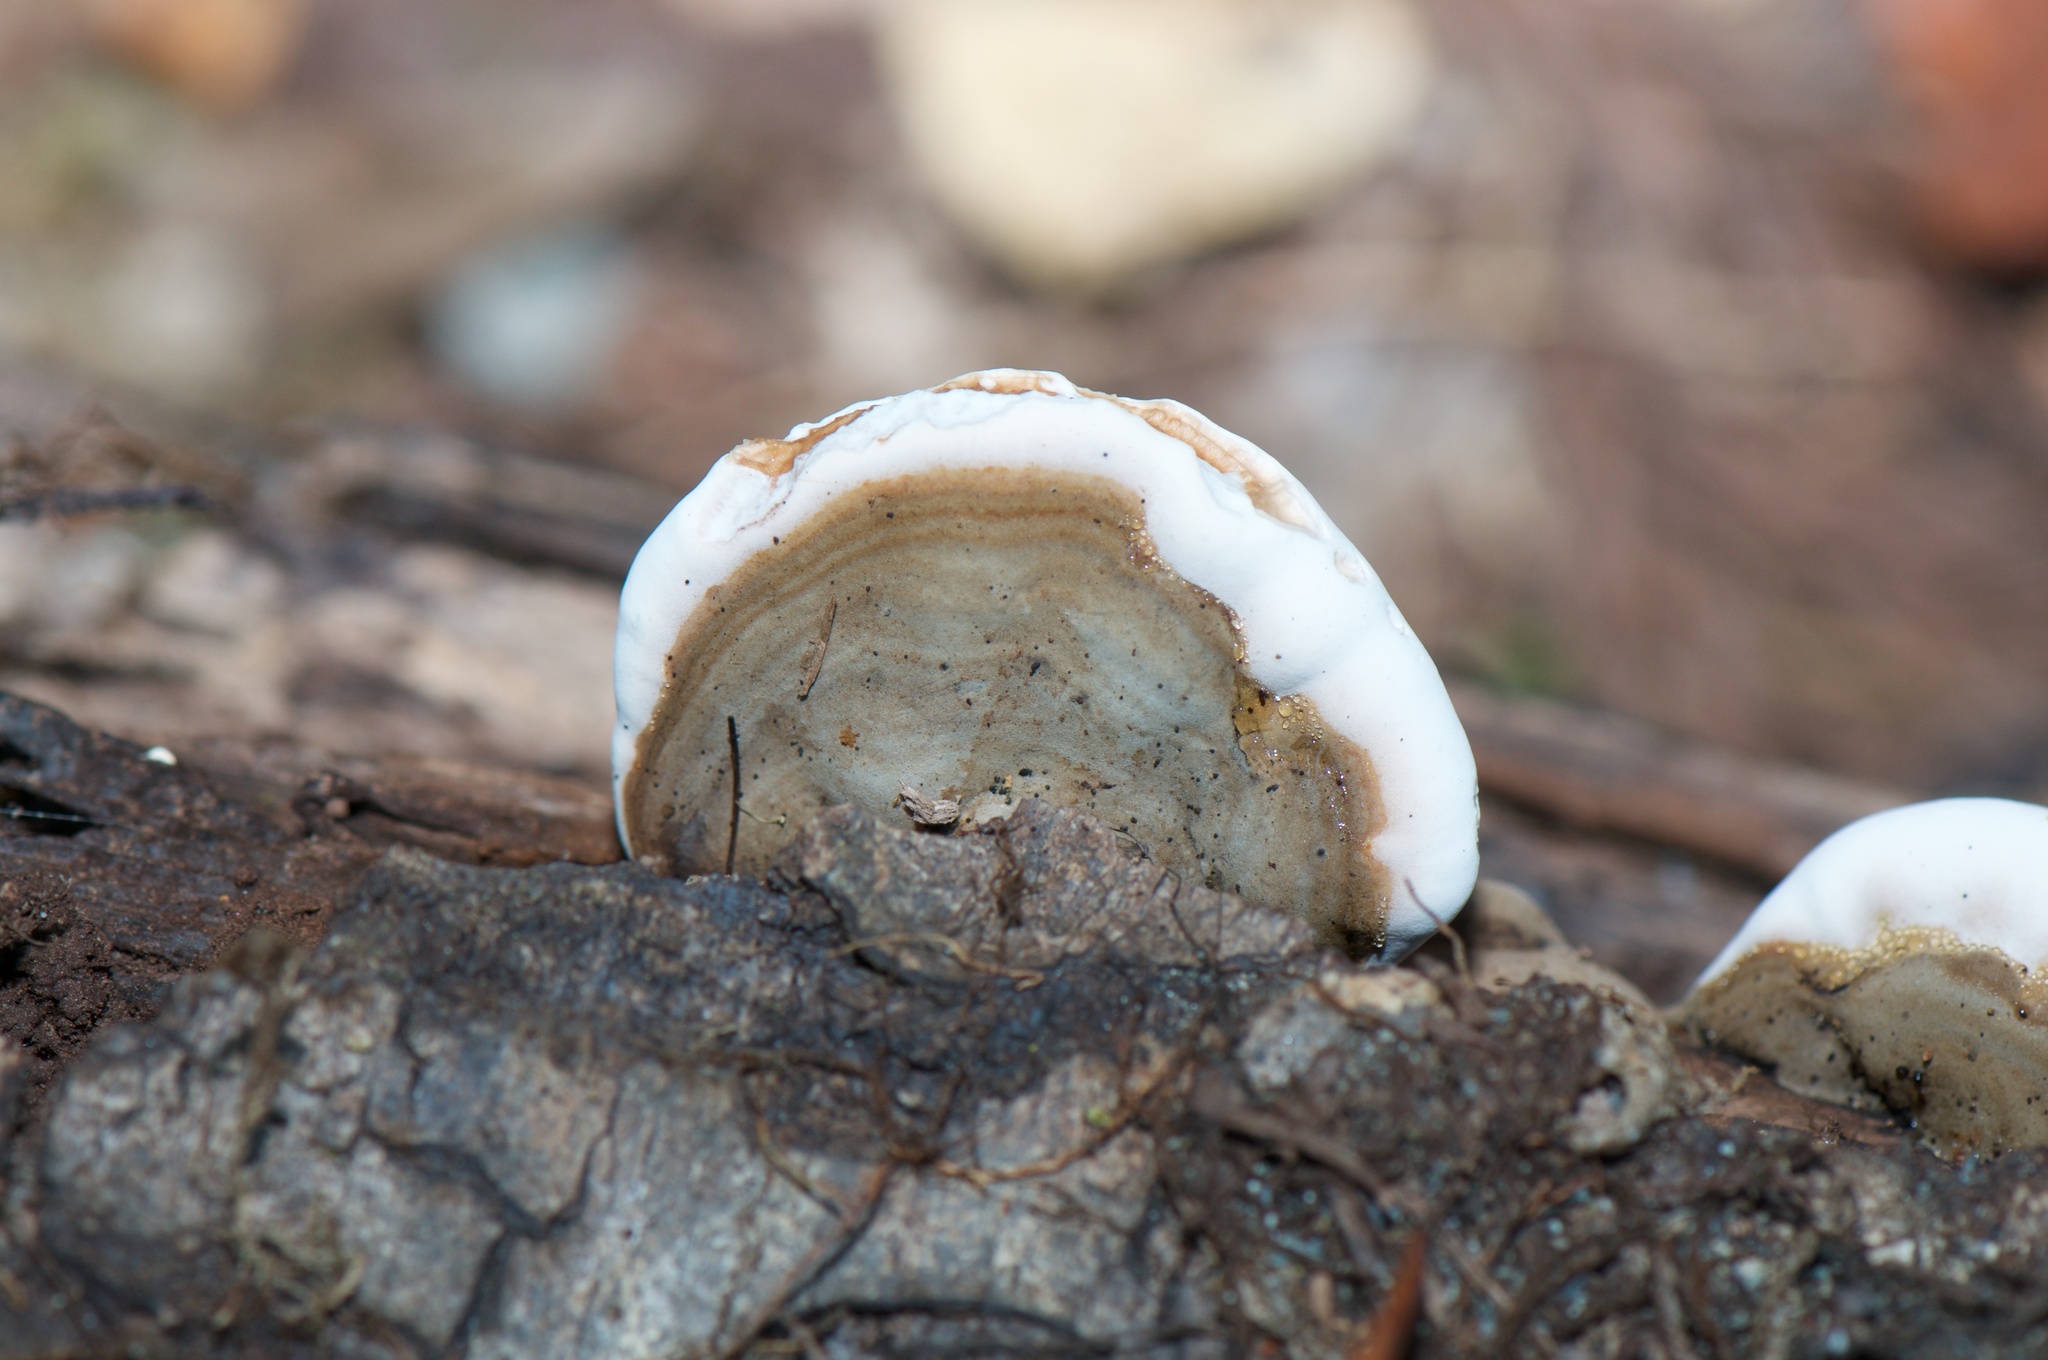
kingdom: Fungi
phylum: Basidiomycota
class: Agaricomycetes
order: Polyporales
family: Polyporaceae
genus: Ganoderma
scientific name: Ganoderma brownii
